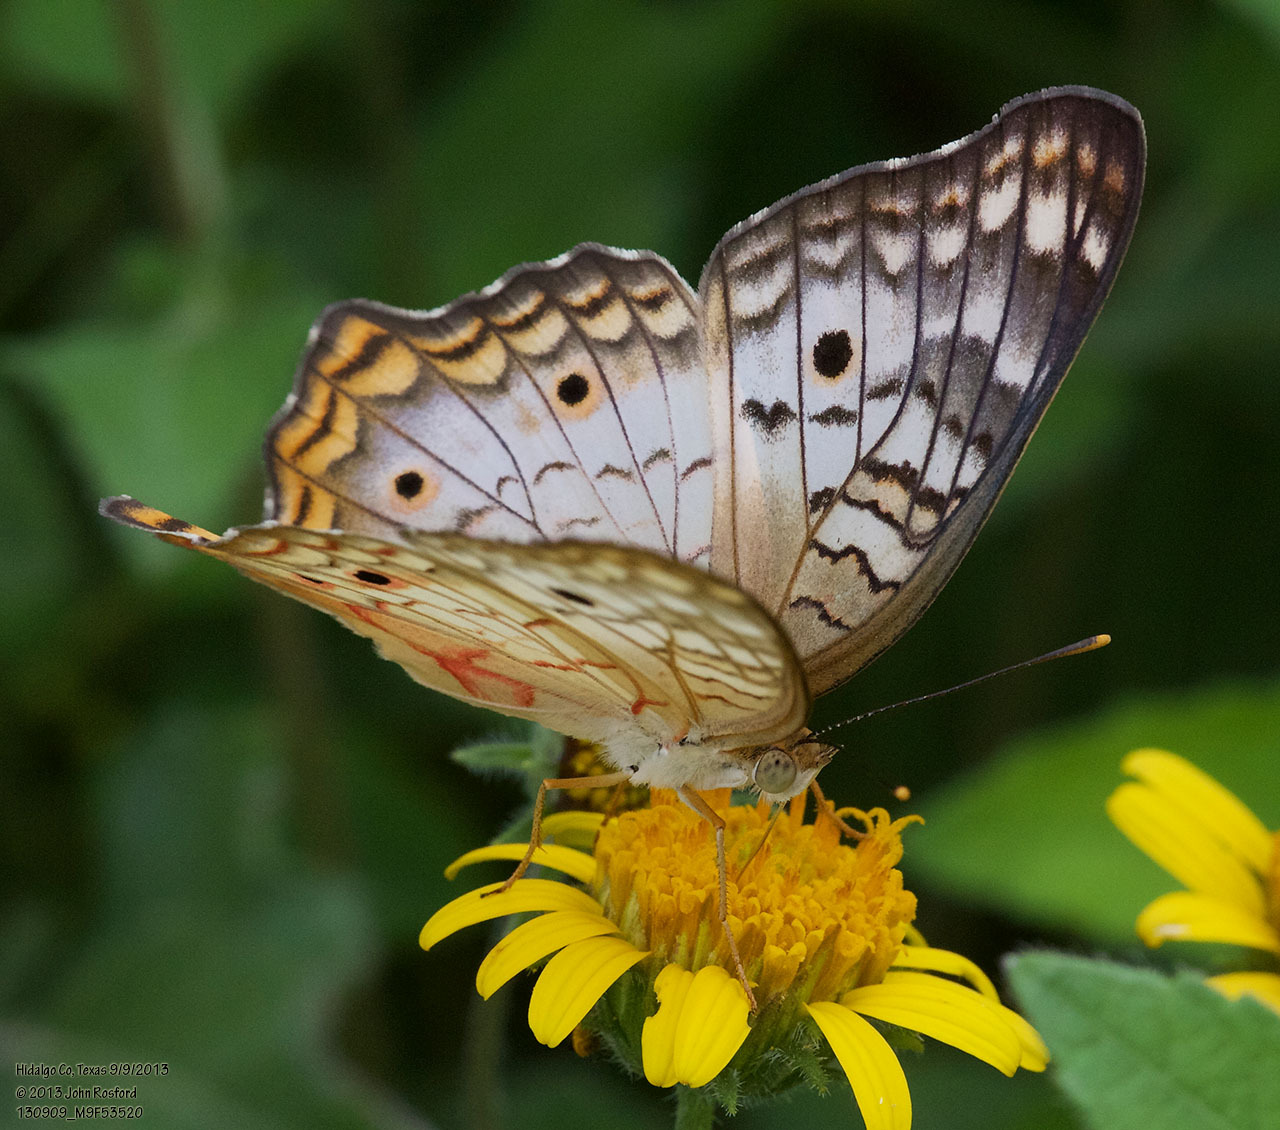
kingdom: Animalia
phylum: Arthropoda
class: Insecta
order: Lepidoptera
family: Nymphalidae
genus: Anartia
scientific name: Anartia jatrophae
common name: White peacock
